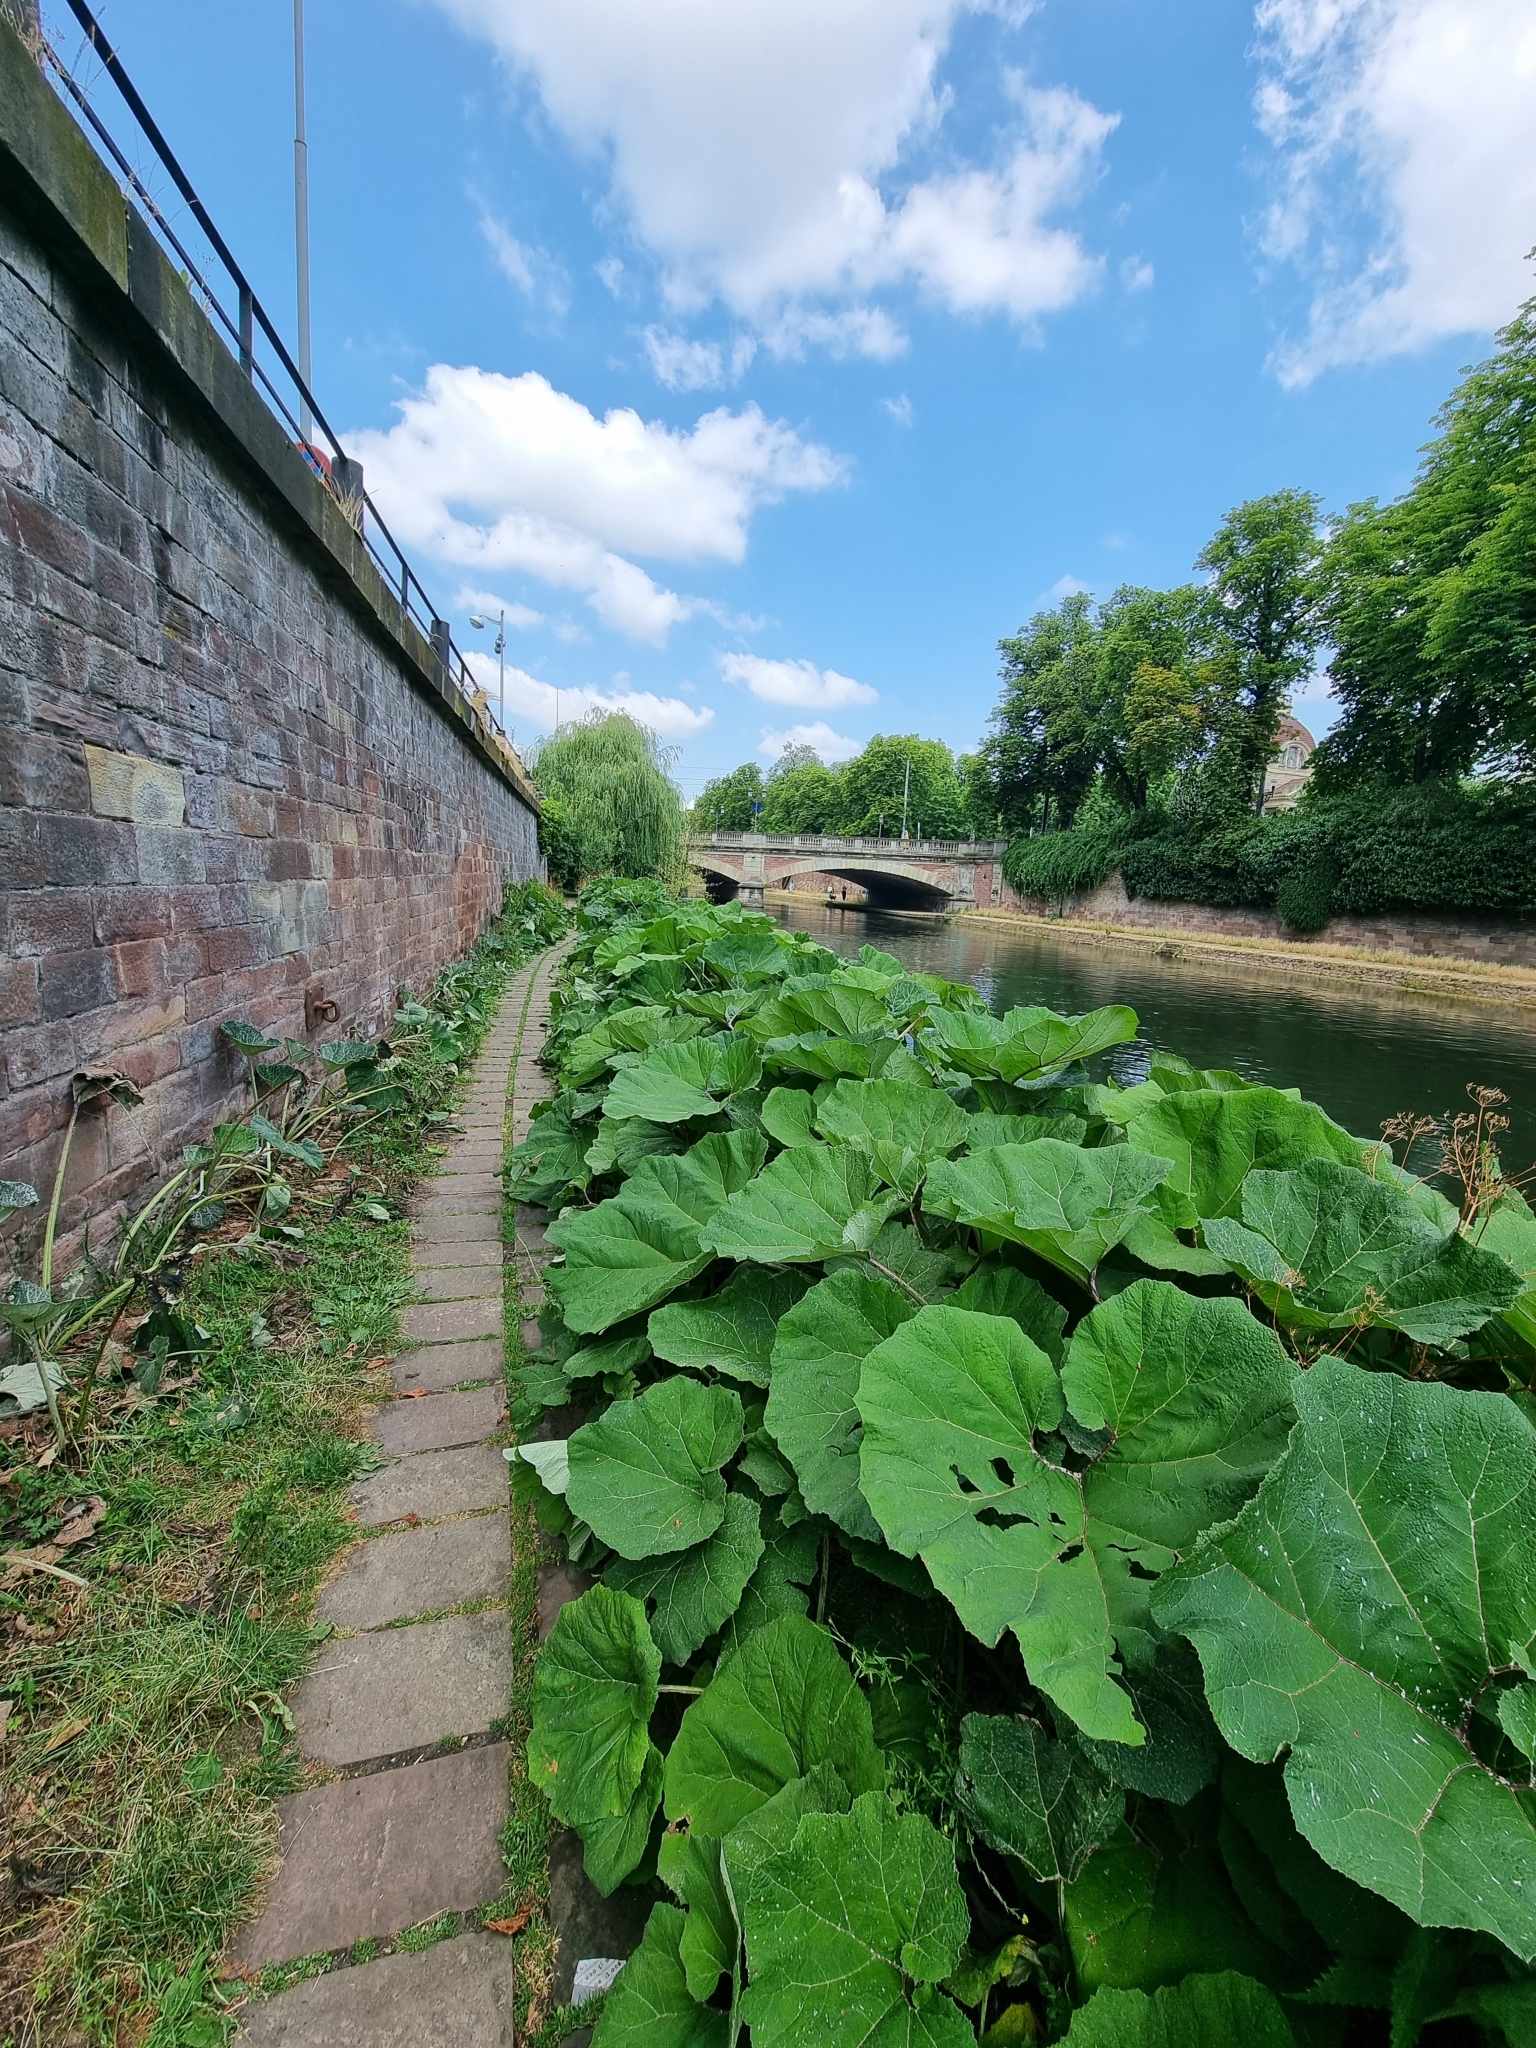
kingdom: Plantae
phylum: Tracheophyta
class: Magnoliopsida
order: Asterales
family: Asteraceae
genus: Petasites
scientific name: Petasites hybridus
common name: Butterbur
